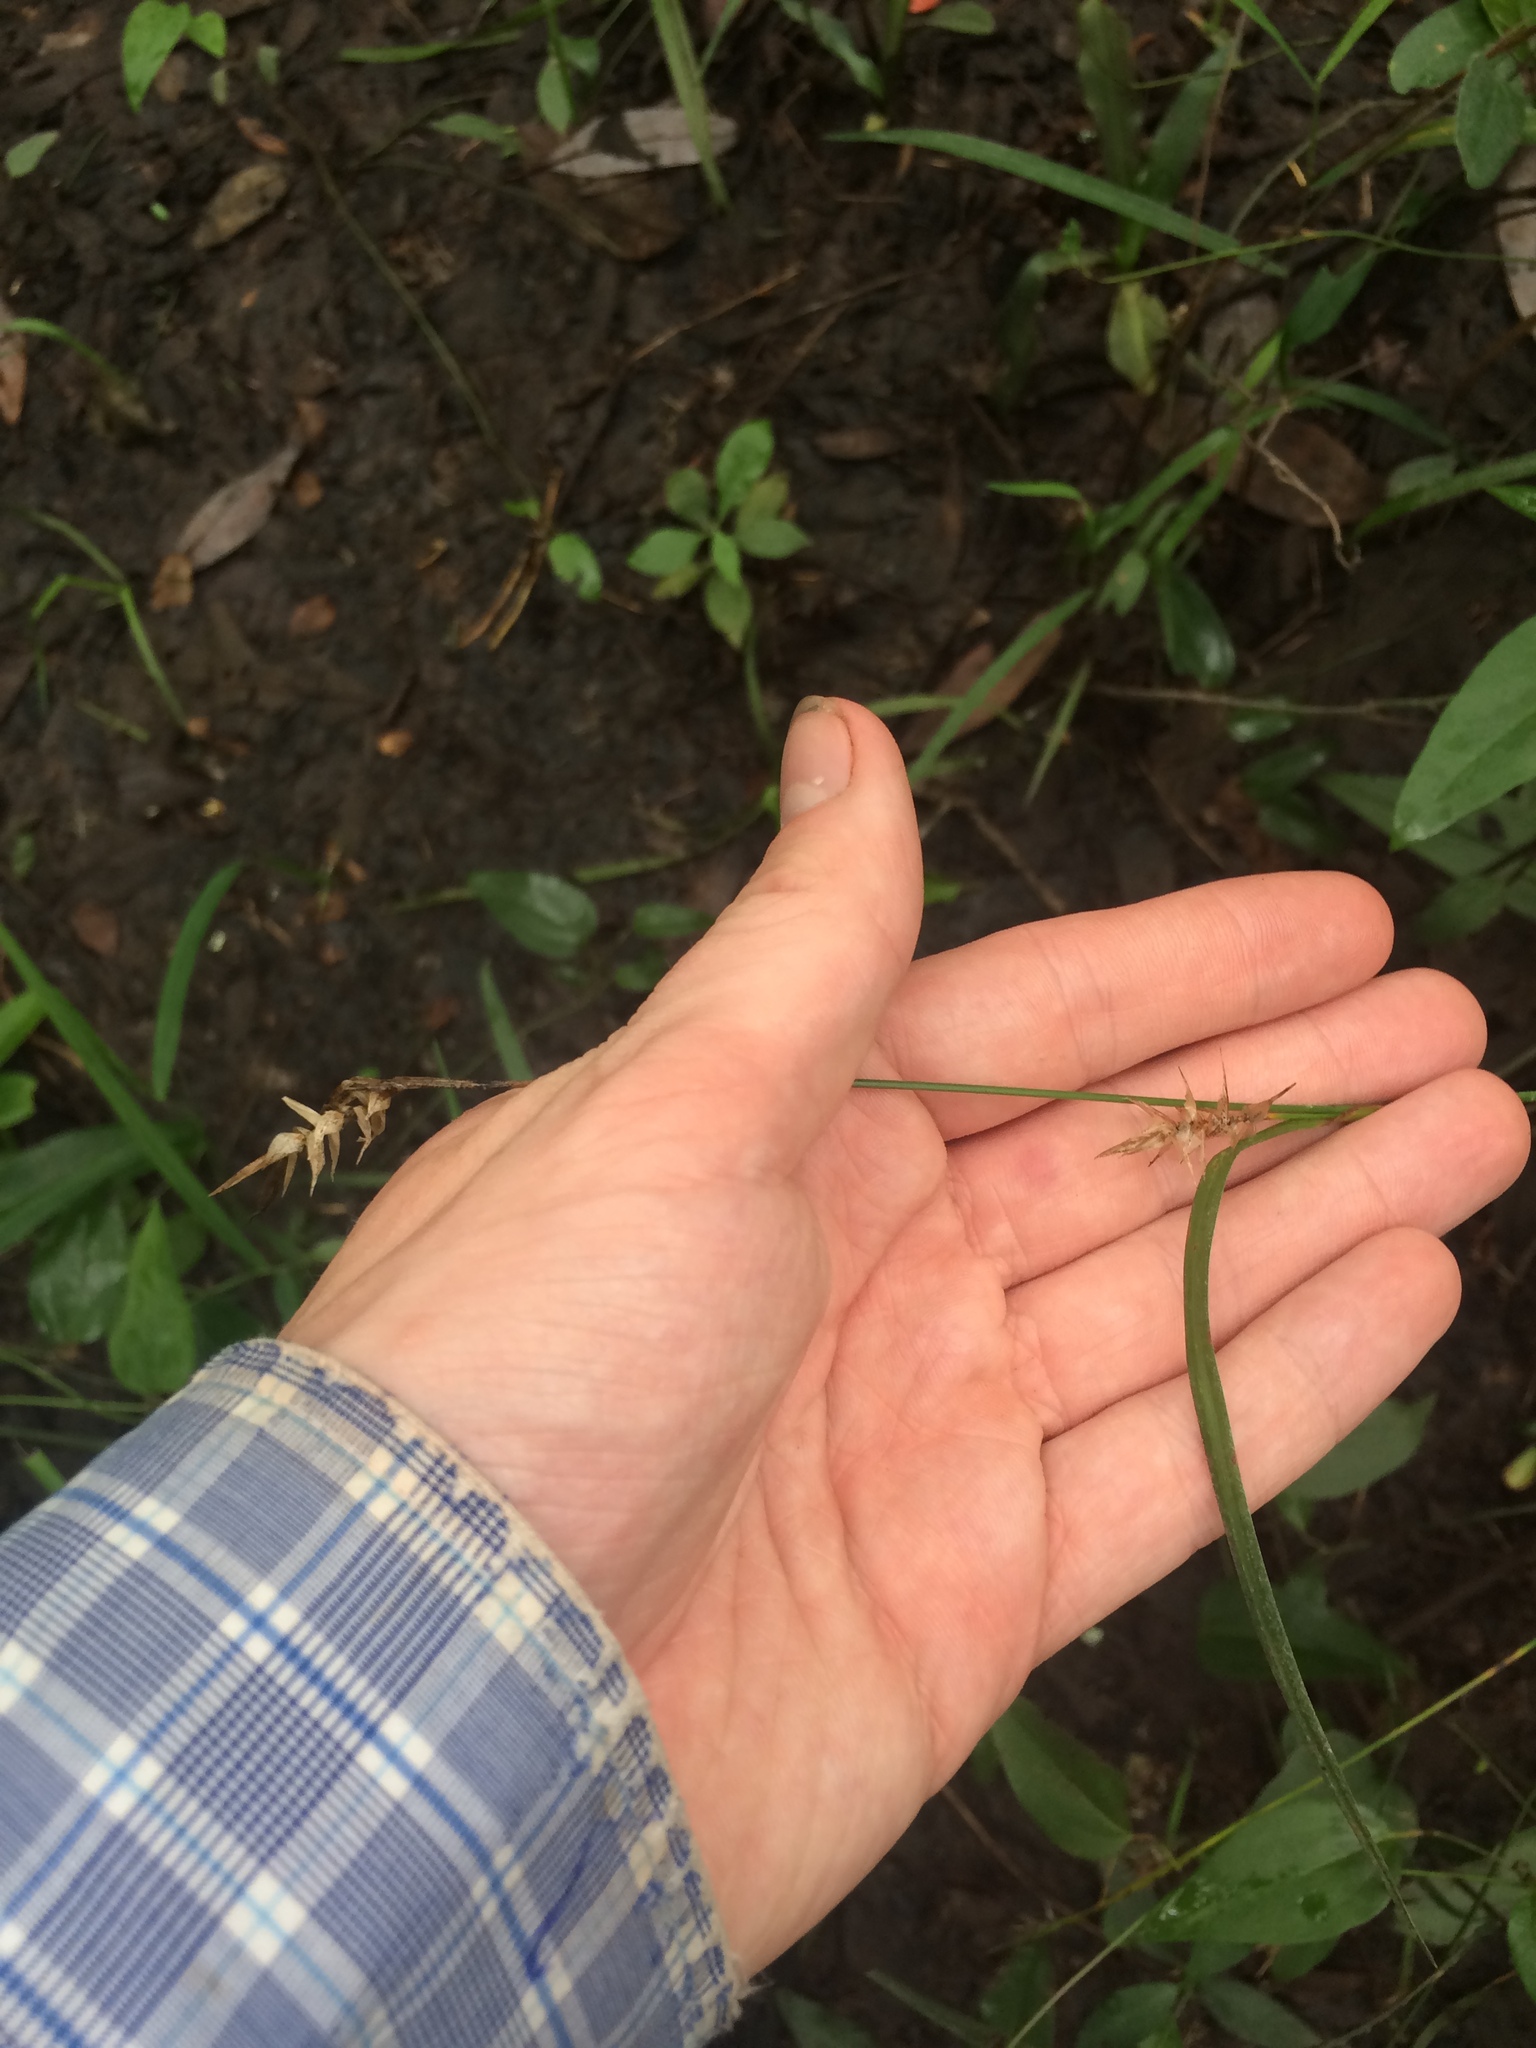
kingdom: Plantae
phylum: Tracheophyta
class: Liliopsida
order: Poales
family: Cyperaceae
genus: Carex
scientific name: Carex lonchocarpa
